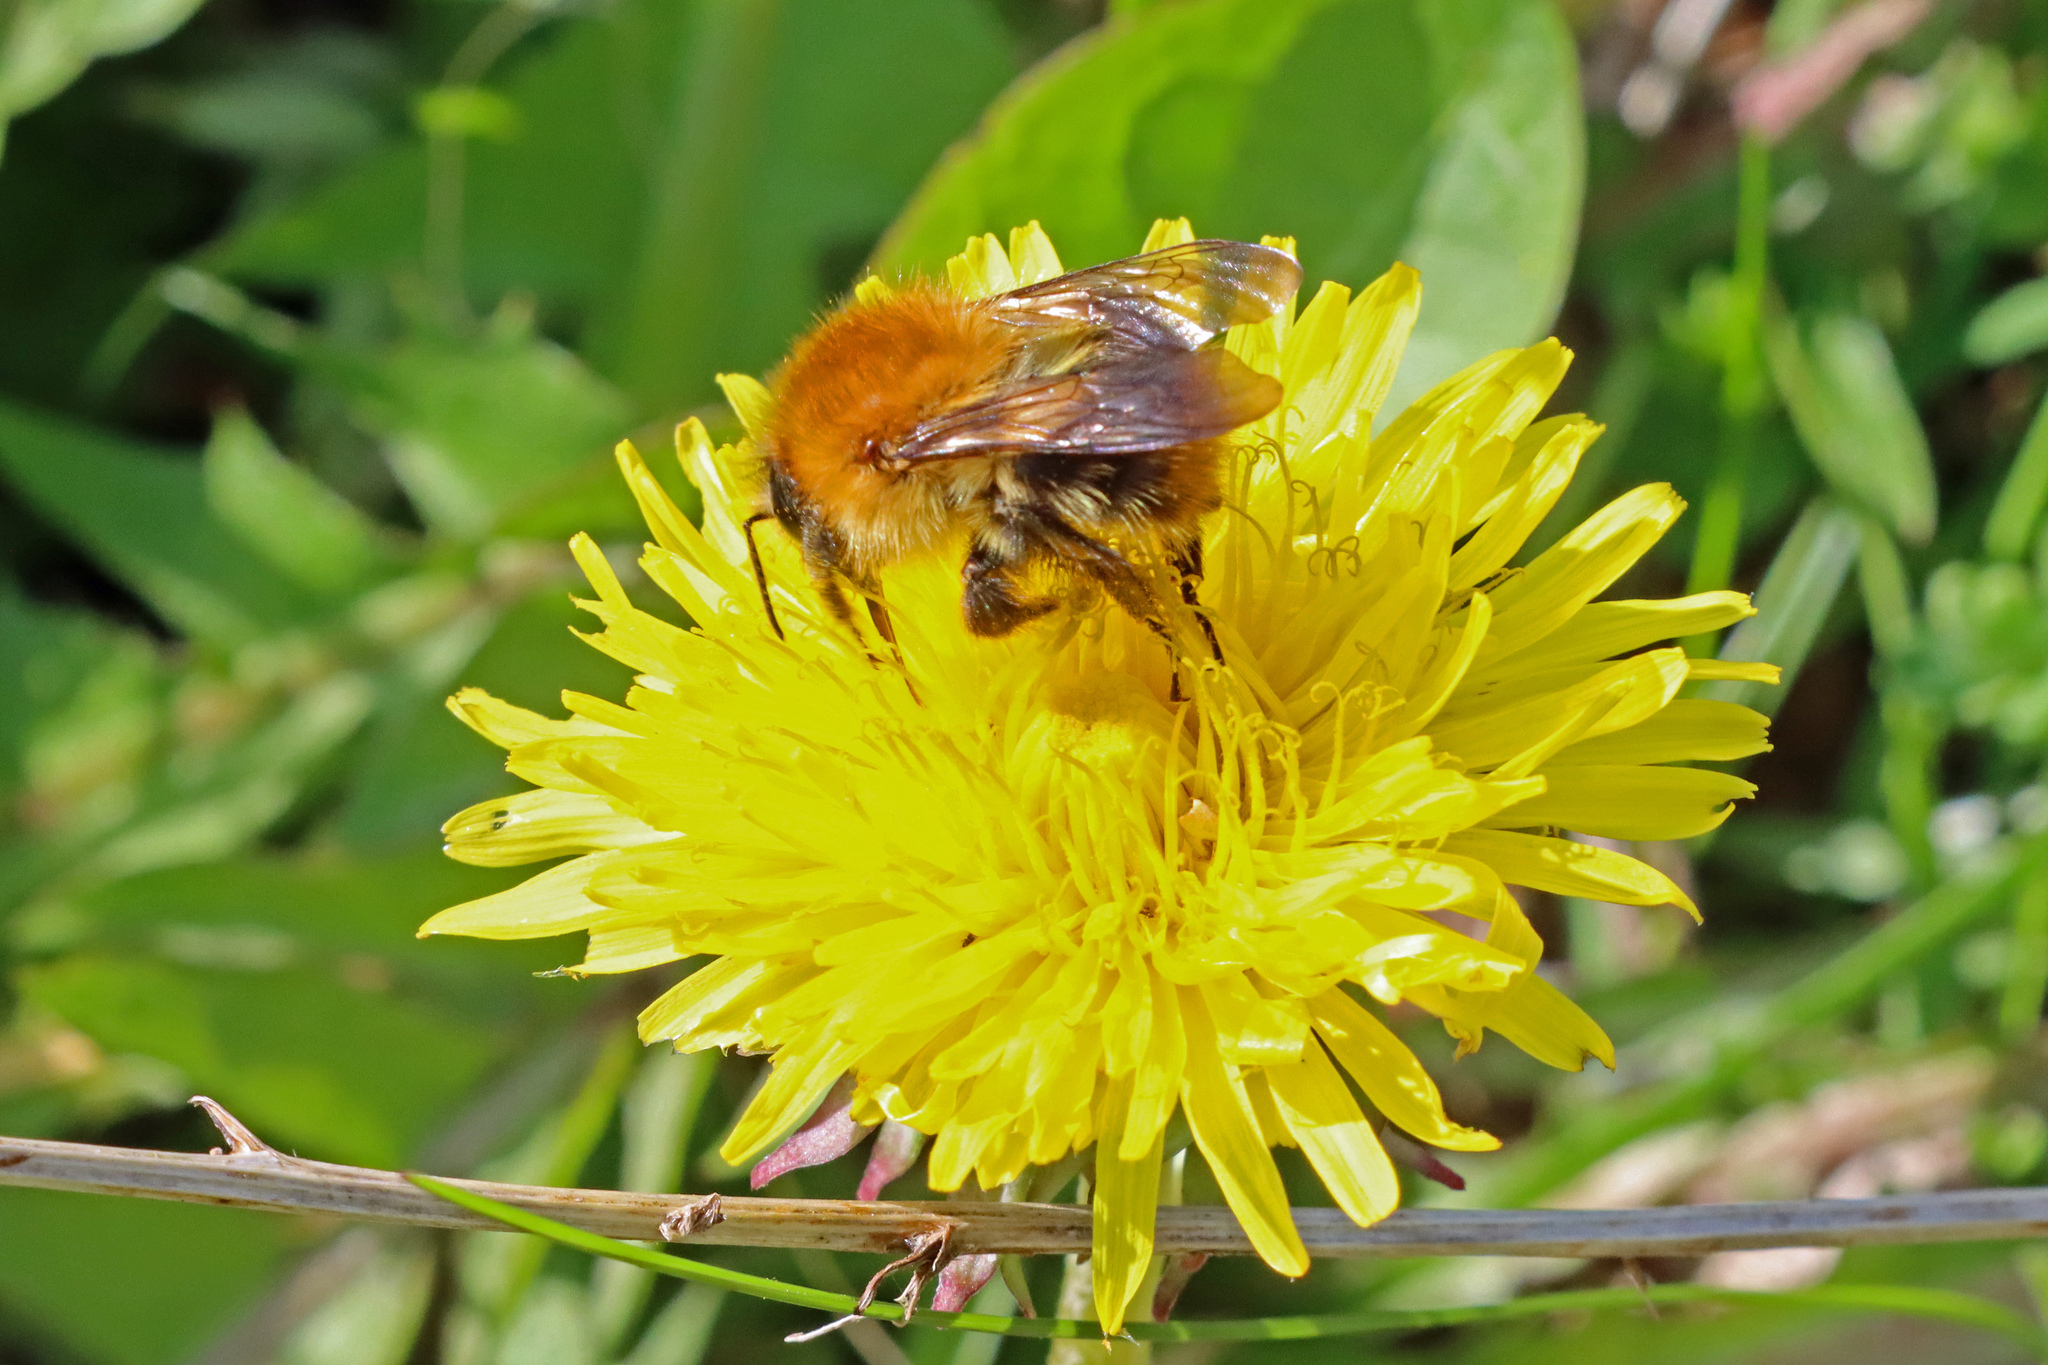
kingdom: Animalia
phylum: Arthropoda
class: Insecta
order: Hymenoptera
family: Apidae
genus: Bombus
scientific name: Bombus pascuorum
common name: Common carder bee
